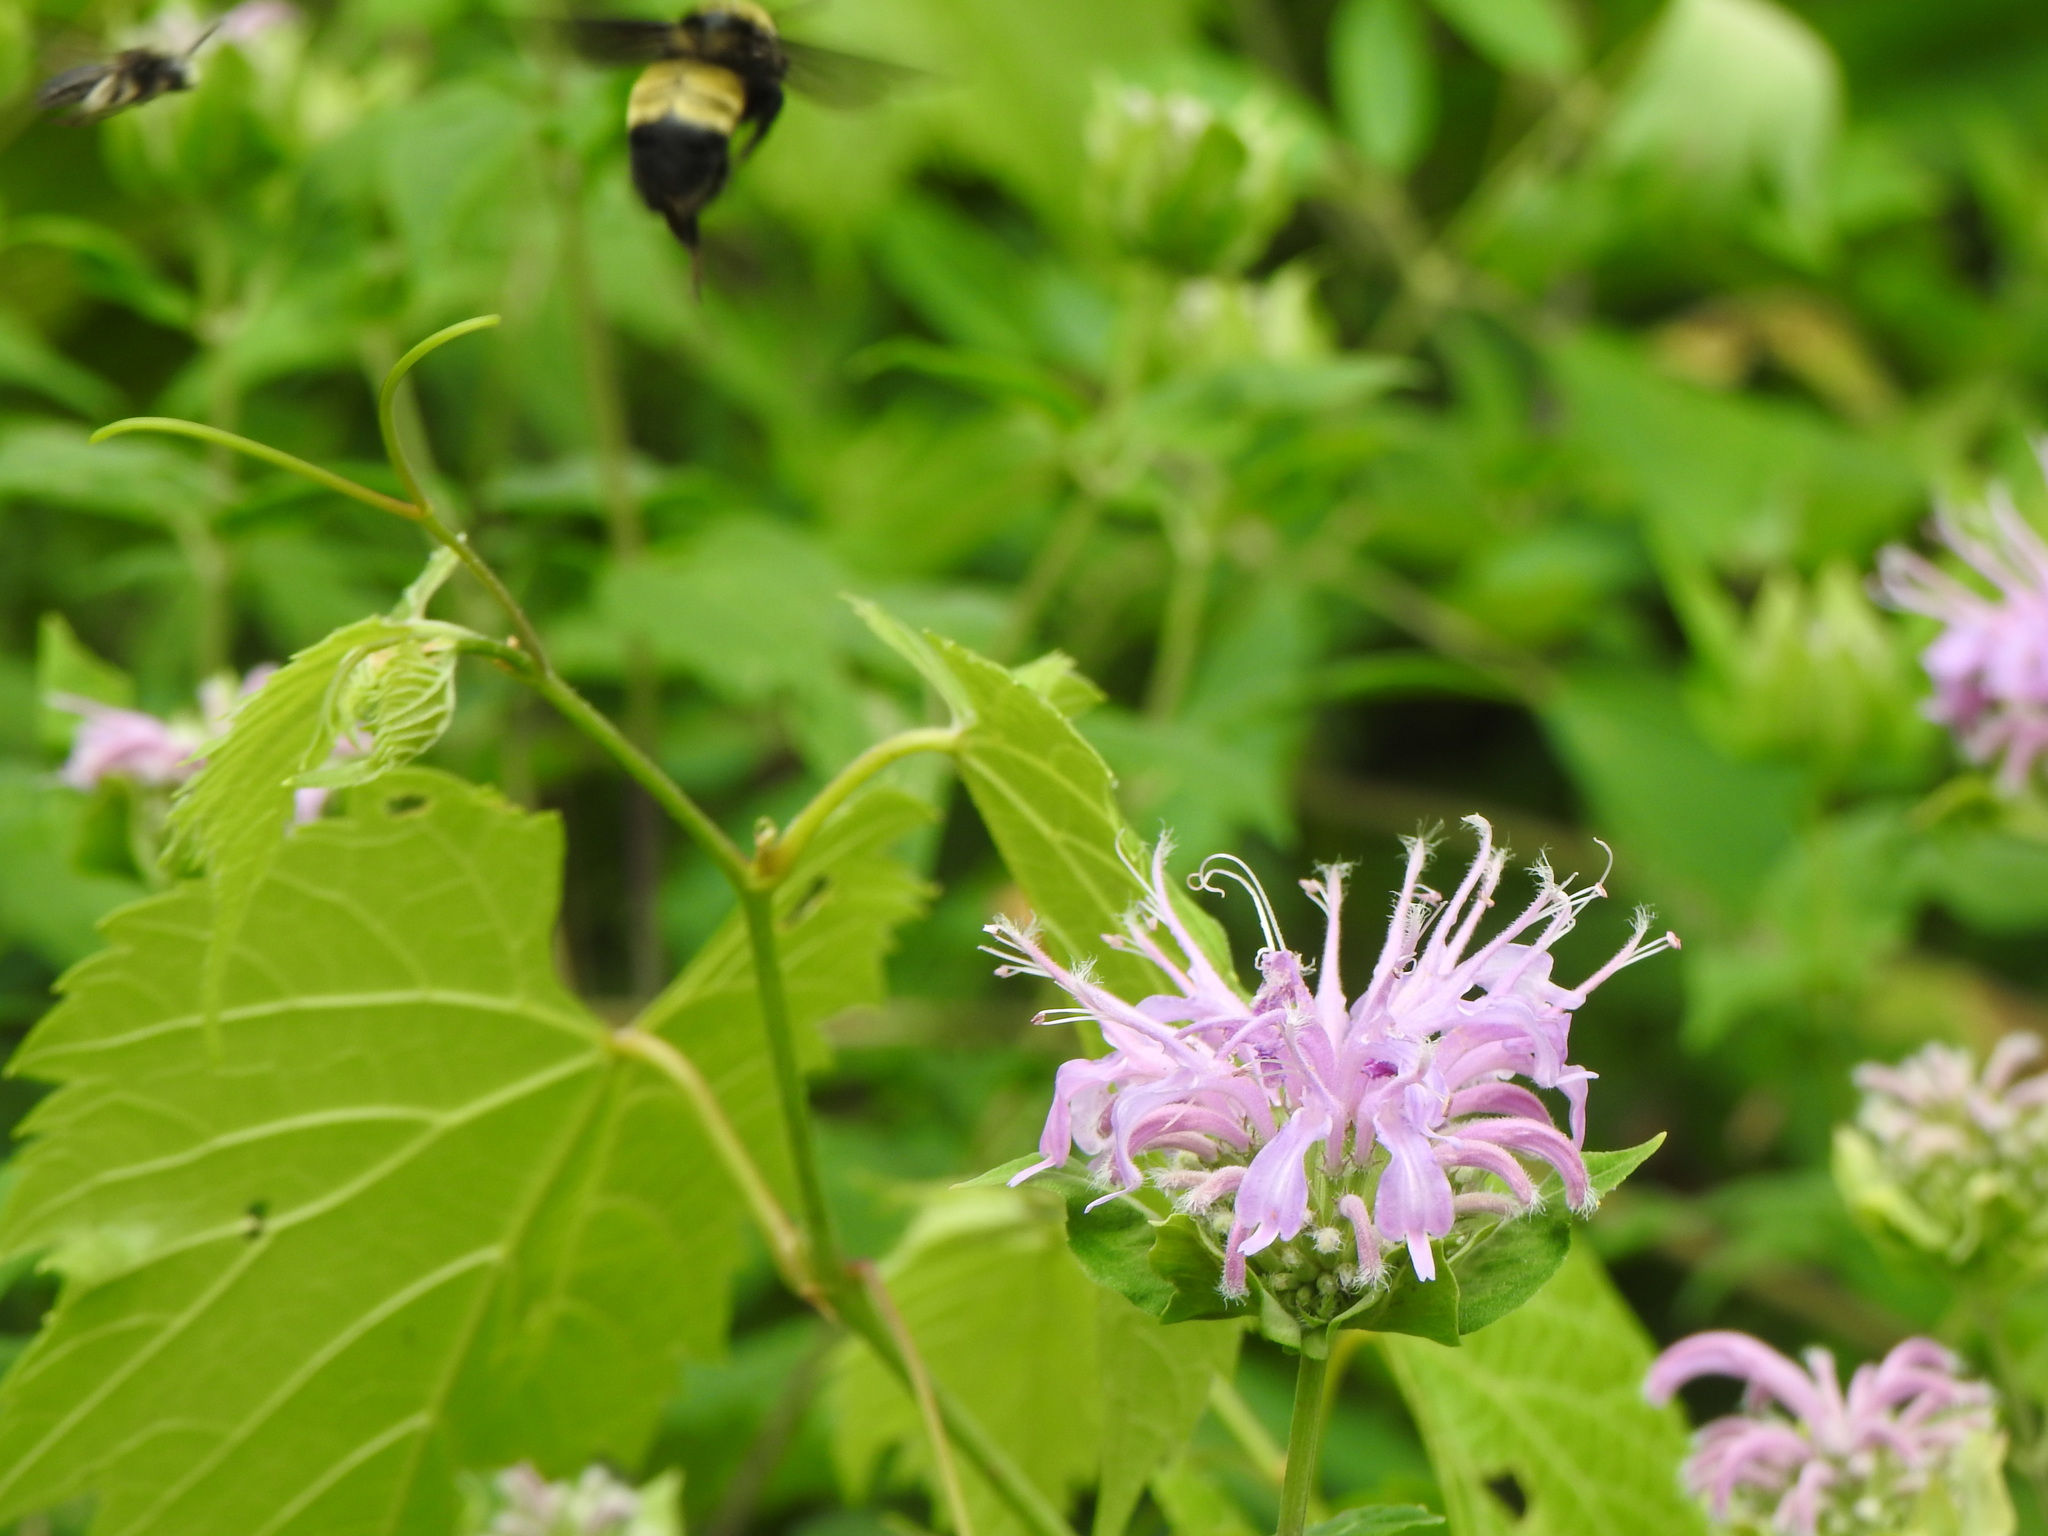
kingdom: Animalia
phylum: Arthropoda
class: Insecta
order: Hymenoptera
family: Apidae
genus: Bombus
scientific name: Bombus auricomus
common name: Black and gold bumble bee
